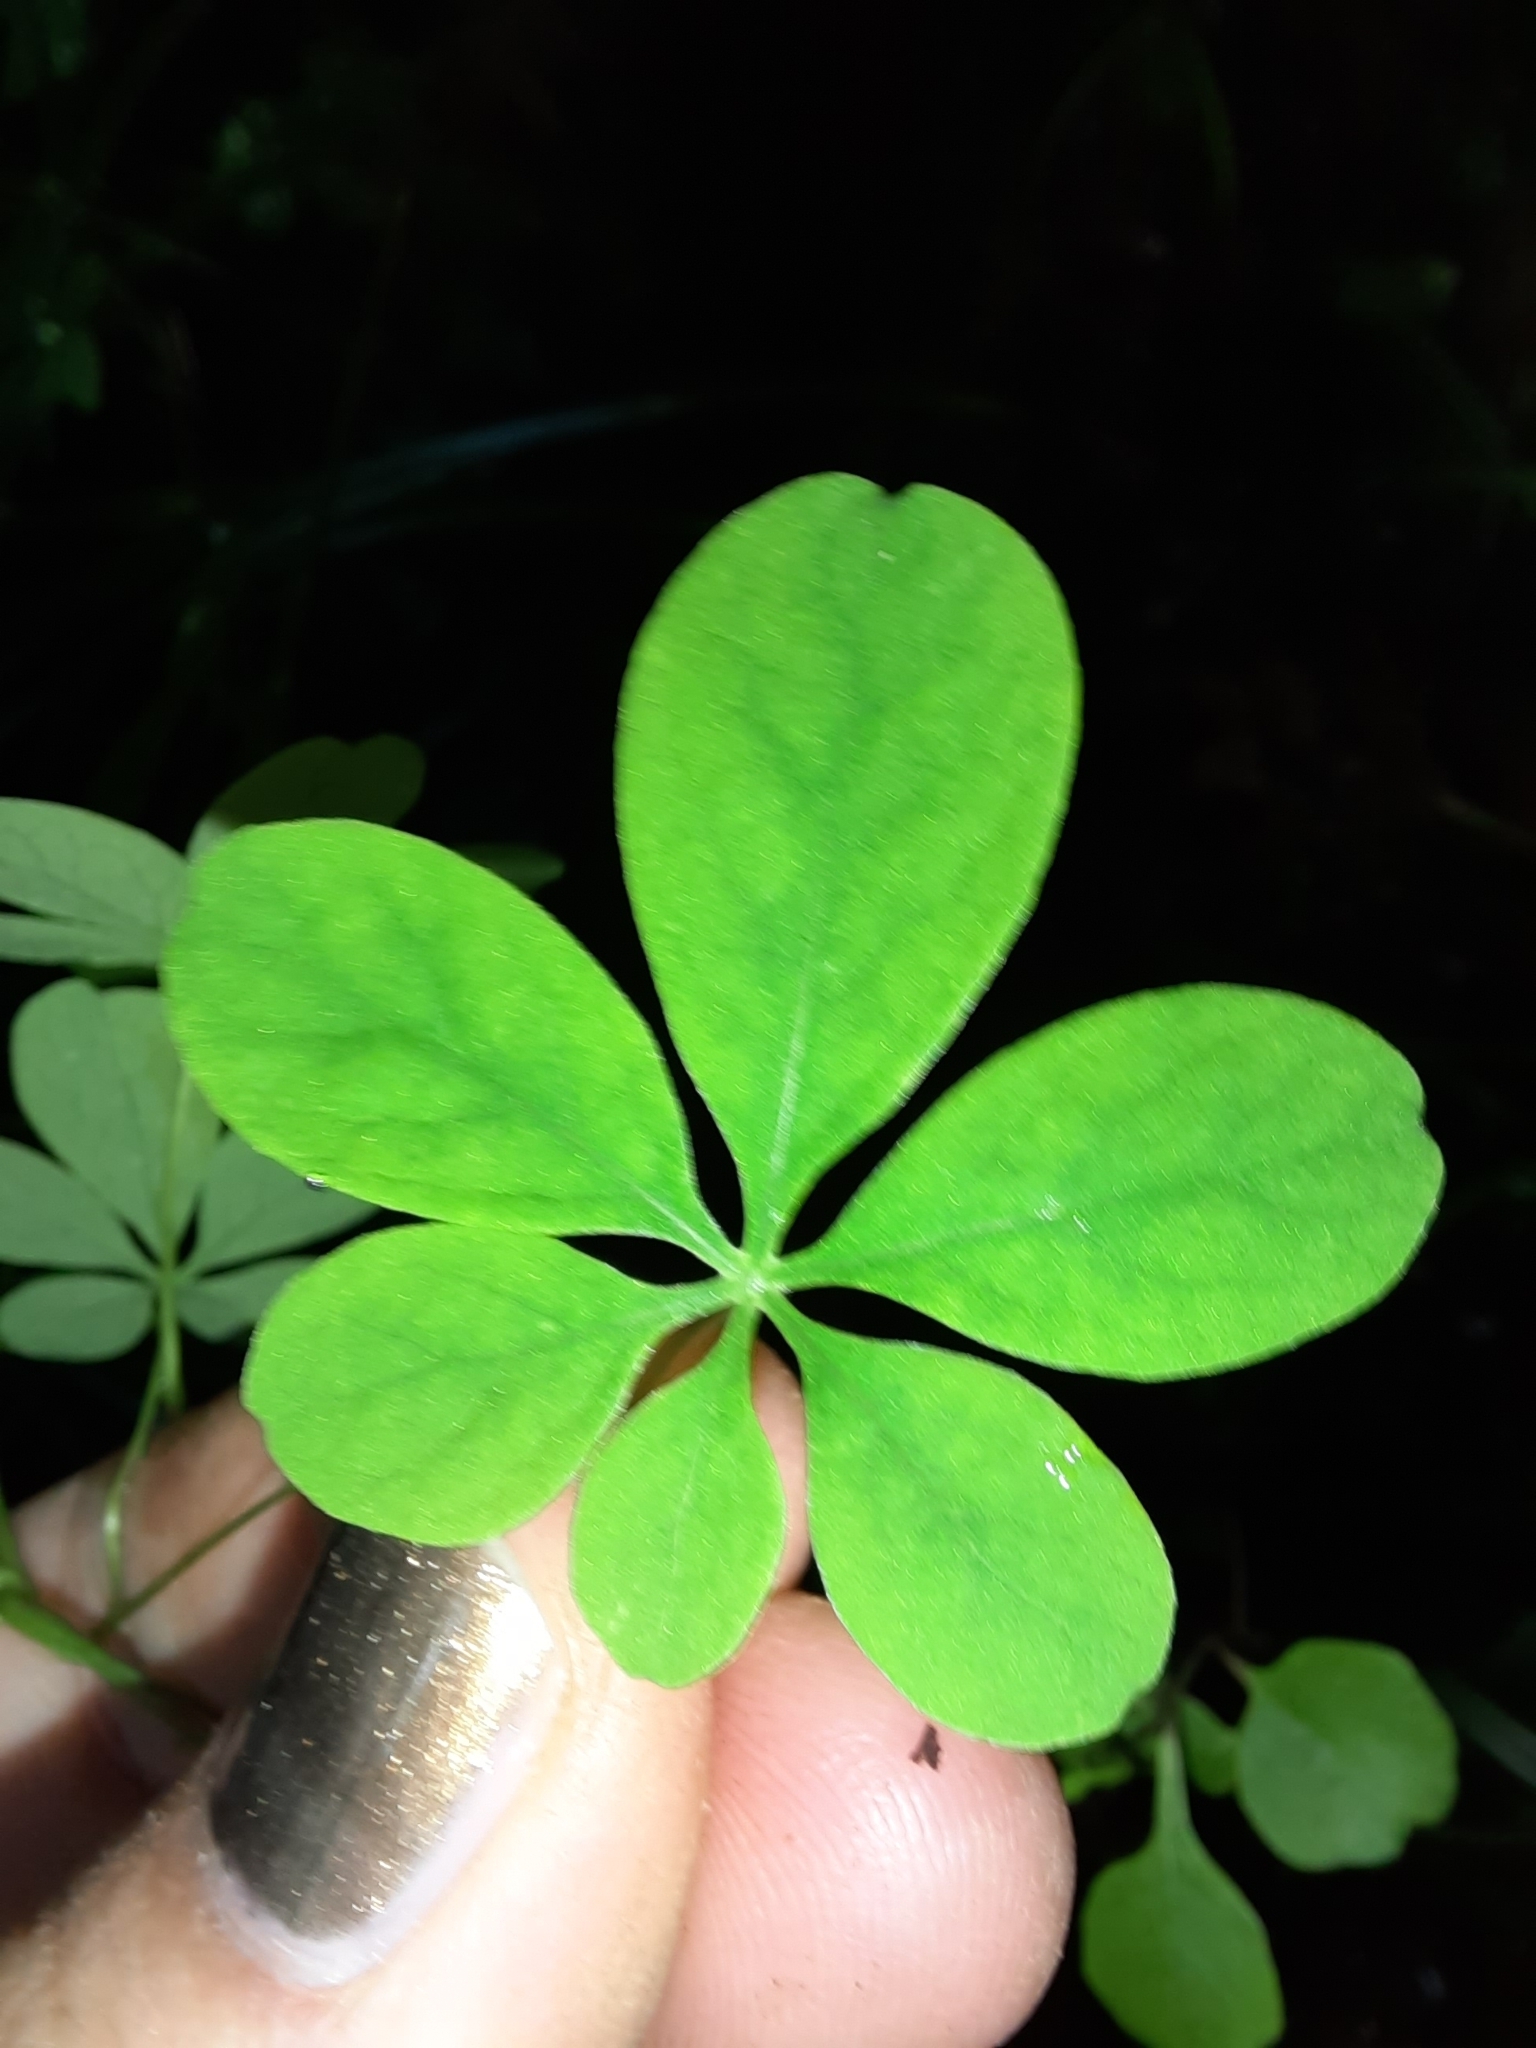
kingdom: Plantae
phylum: Tracheophyta
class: Magnoliopsida
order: Brassicales
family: Tropaeolaceae
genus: Tropaeolum
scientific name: Tropaeolum speciosum
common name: Flame nasturtium
